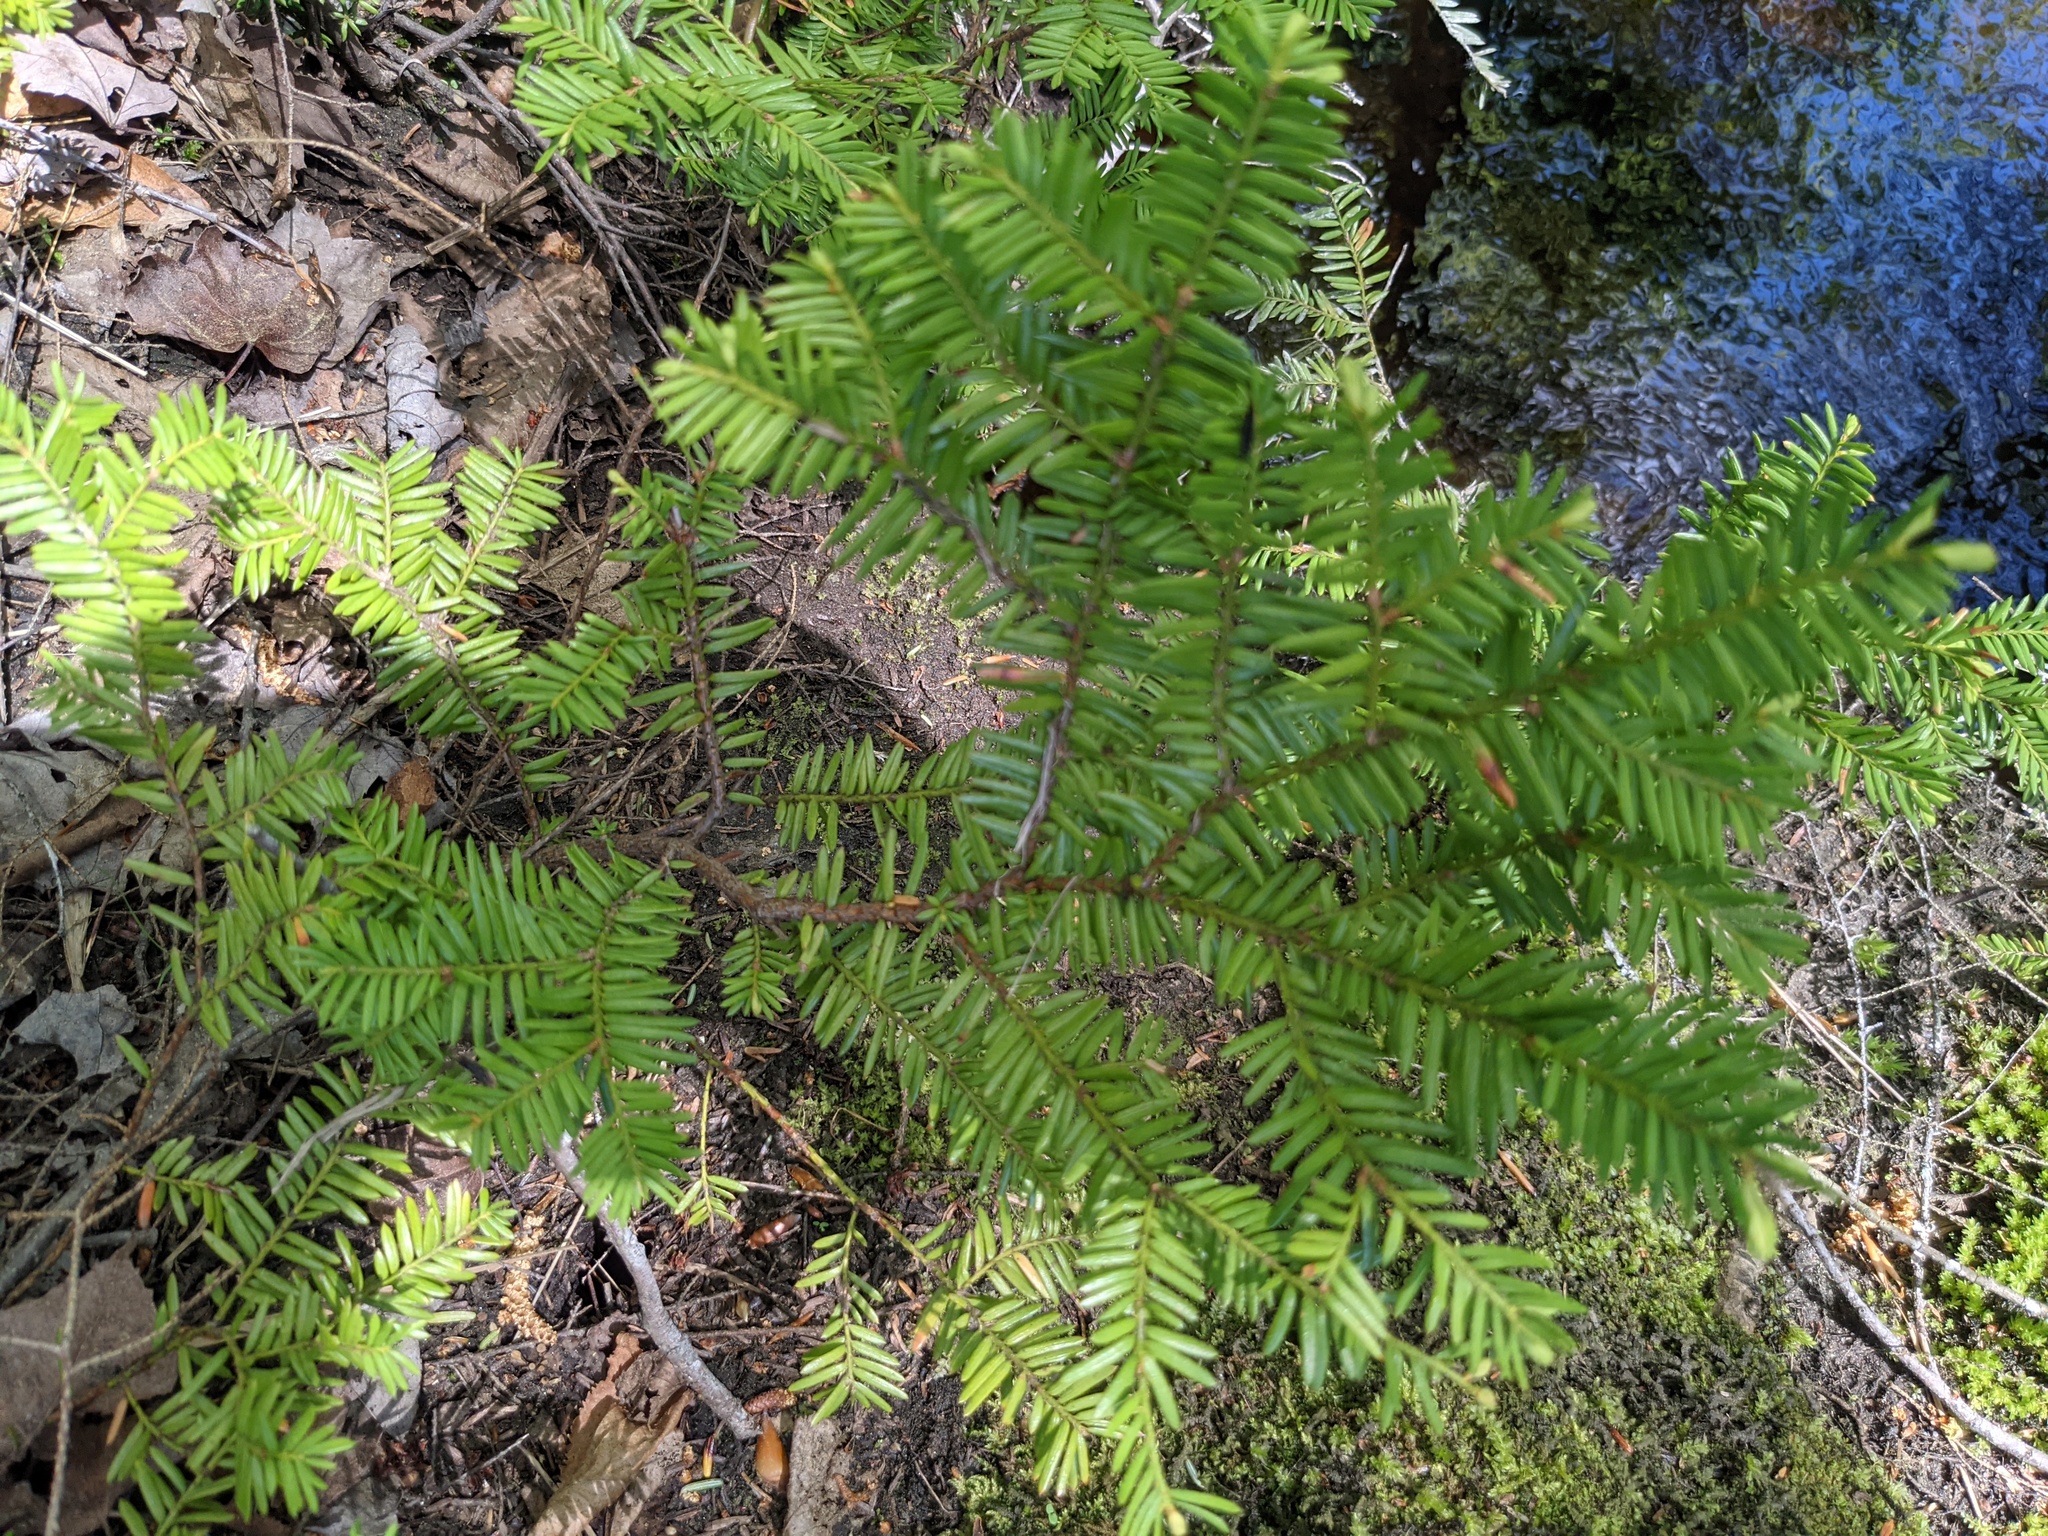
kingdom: Plantae
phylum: Tracheophyta
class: Pinopsida
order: Pinales
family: Taxaceae
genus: Taxus
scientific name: Taxus canadensis
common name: American yew
